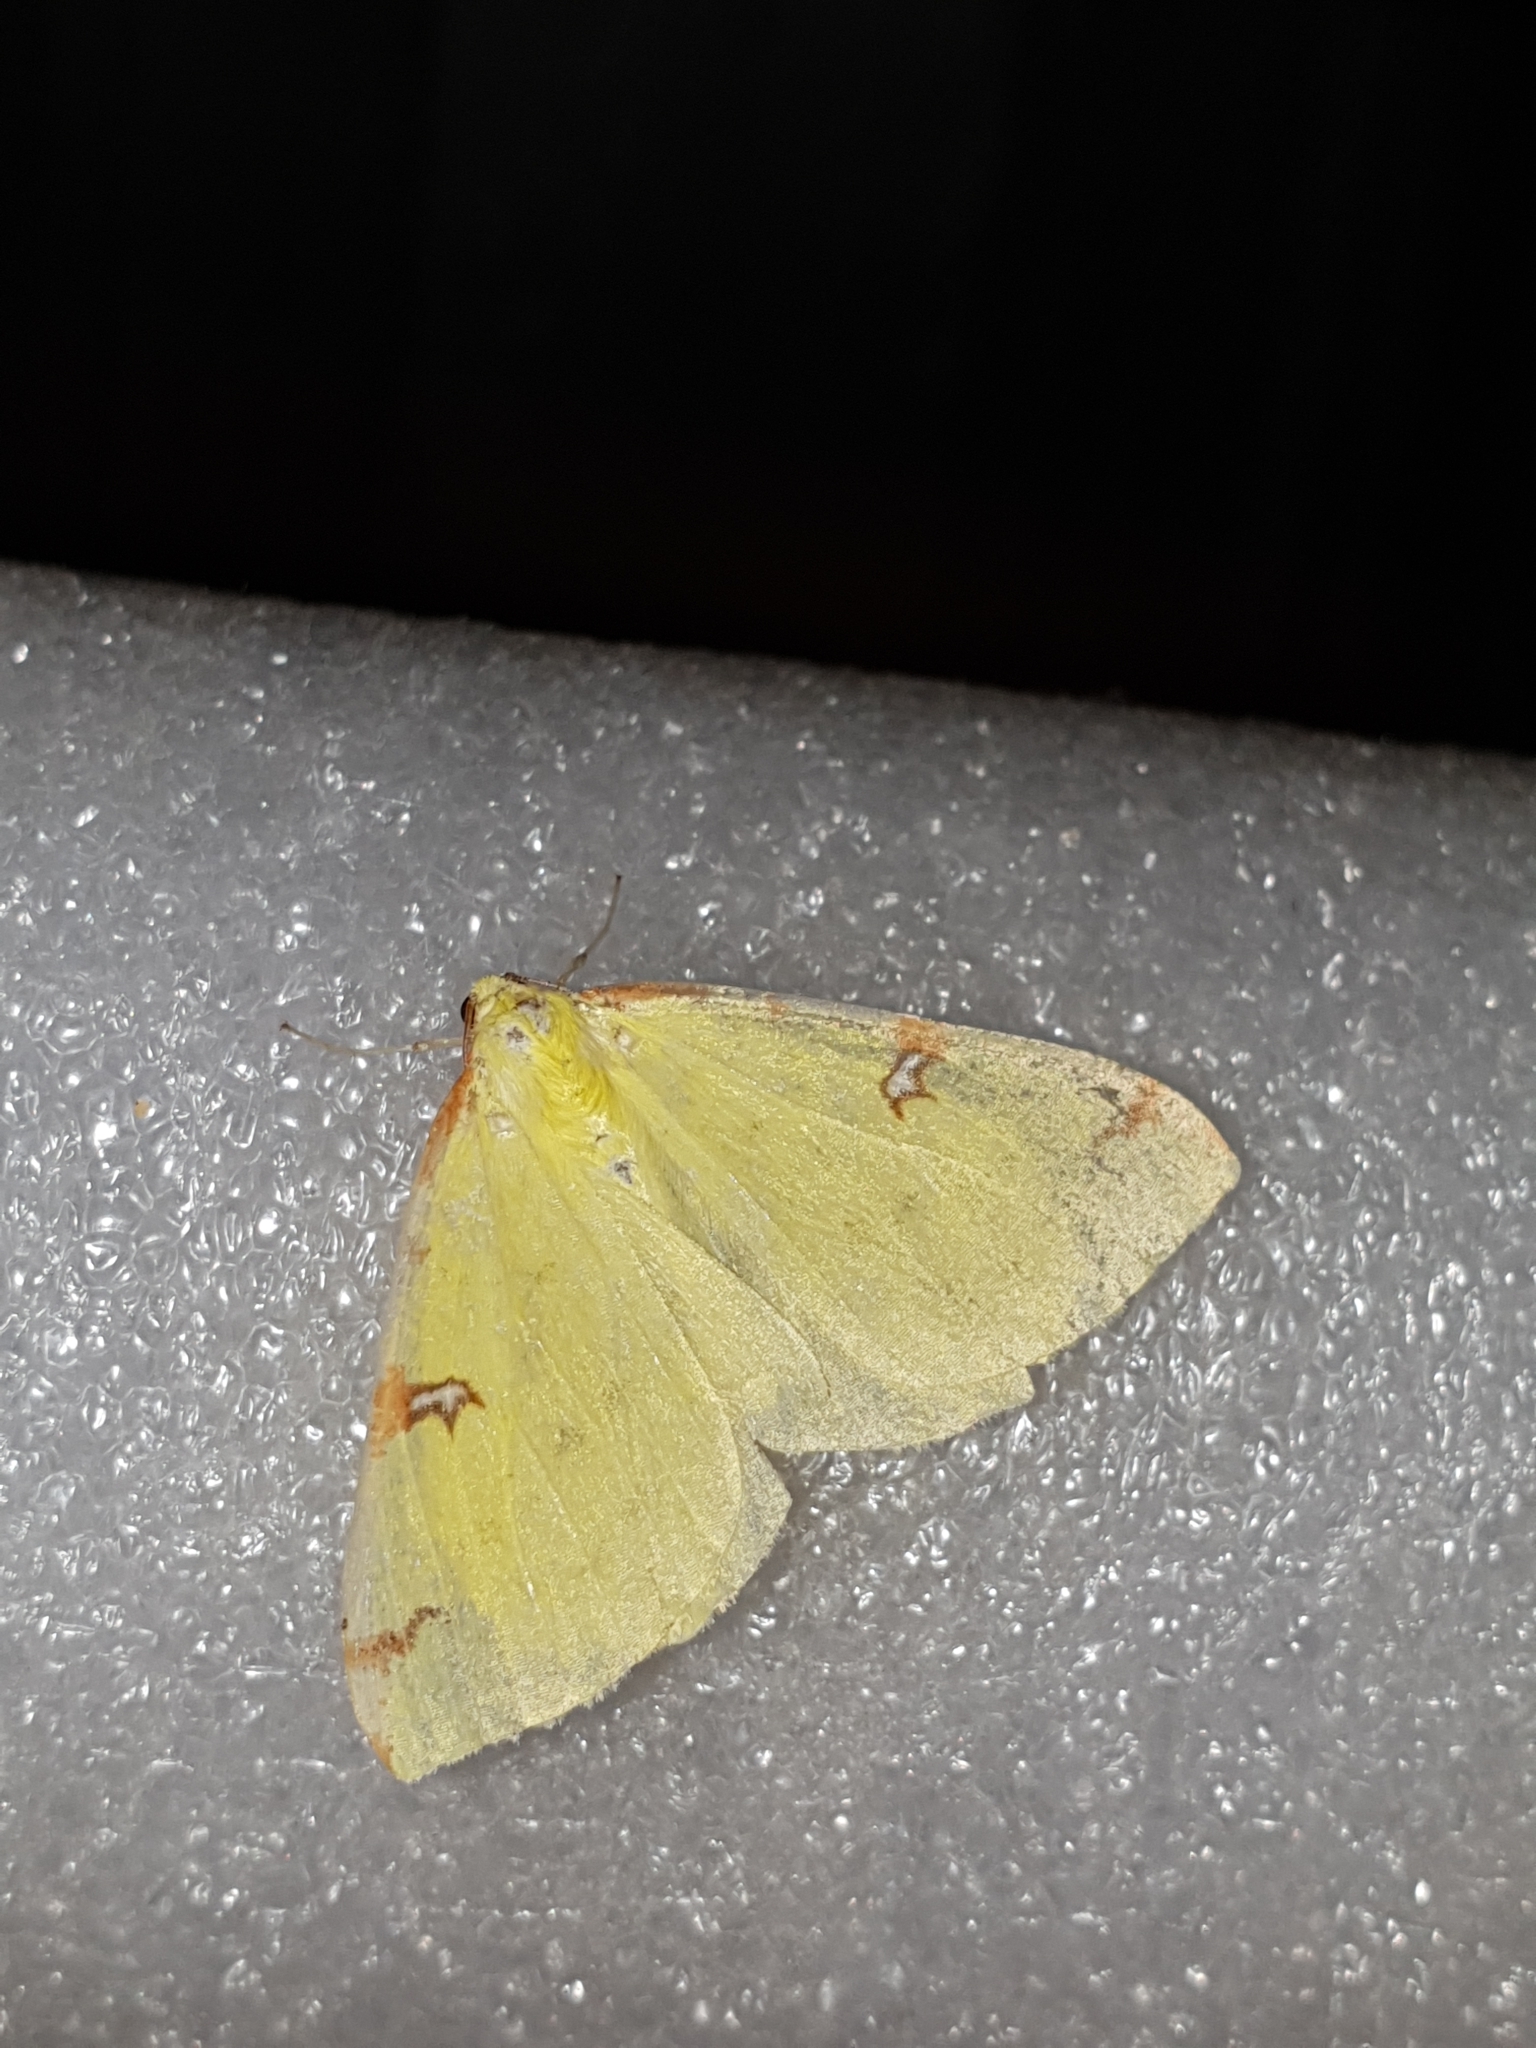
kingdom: Animalia
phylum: Arthropoda
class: Insecta
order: Lepidoptera
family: Geometridae
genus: Opisthograptis
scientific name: Opisthograptis luteolata
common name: Brimstone moth
